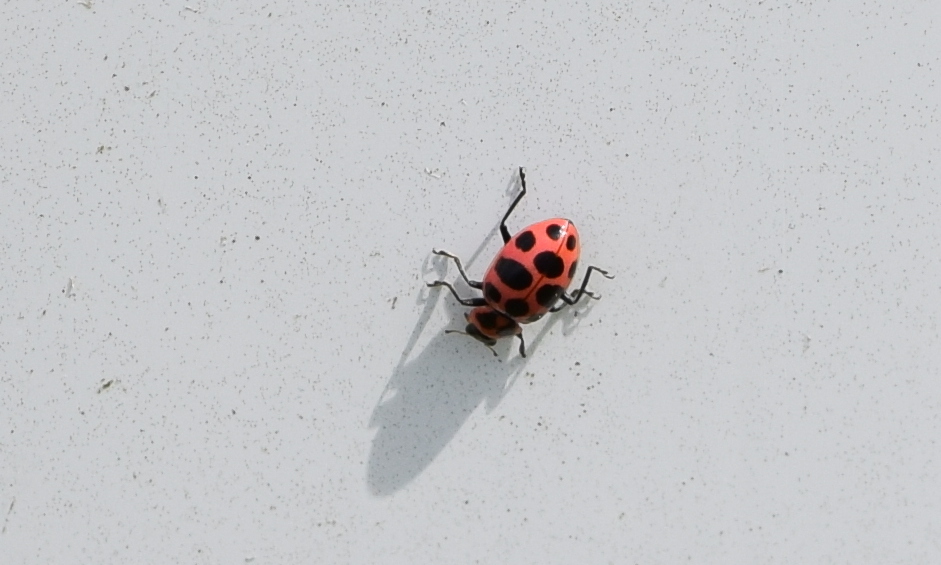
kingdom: Animalia
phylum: Arthropoda
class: Insecta
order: Coleoptera
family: Coccinellidae
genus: Coleomegilla
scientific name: Coleomegilla maculata
